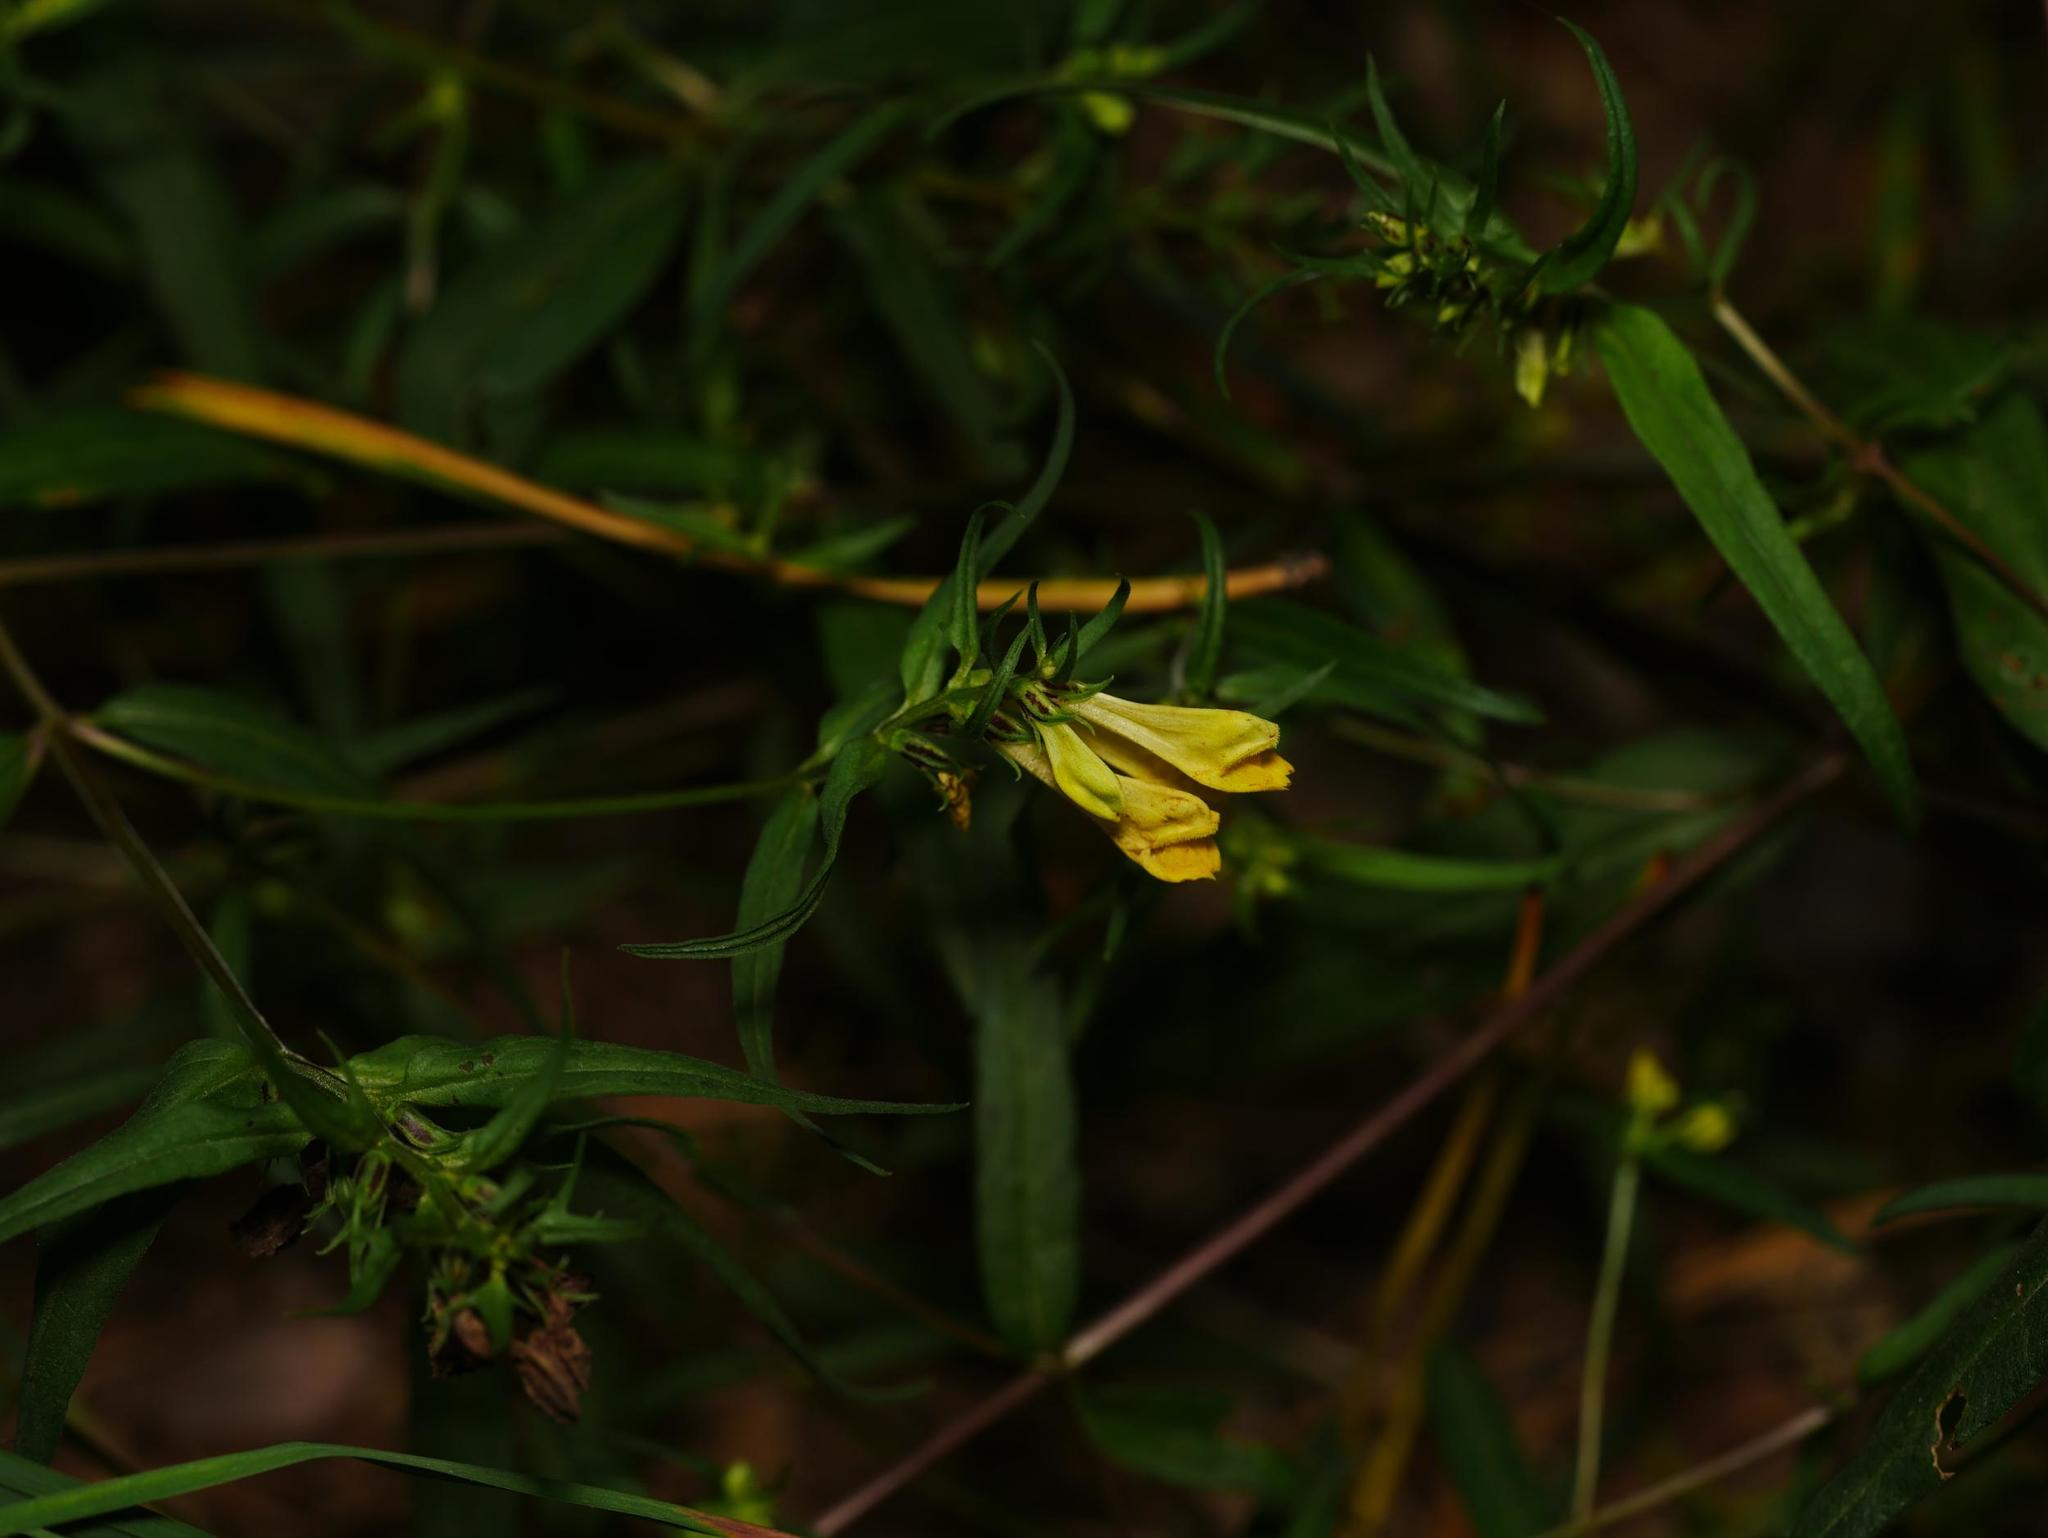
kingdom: Plantae
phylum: Tracheophyta
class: Magnoliopsida
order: Lamiales
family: Orobanchaceae
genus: Melampyrum
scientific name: Melampyrum pratense
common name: Common cow-wheat
